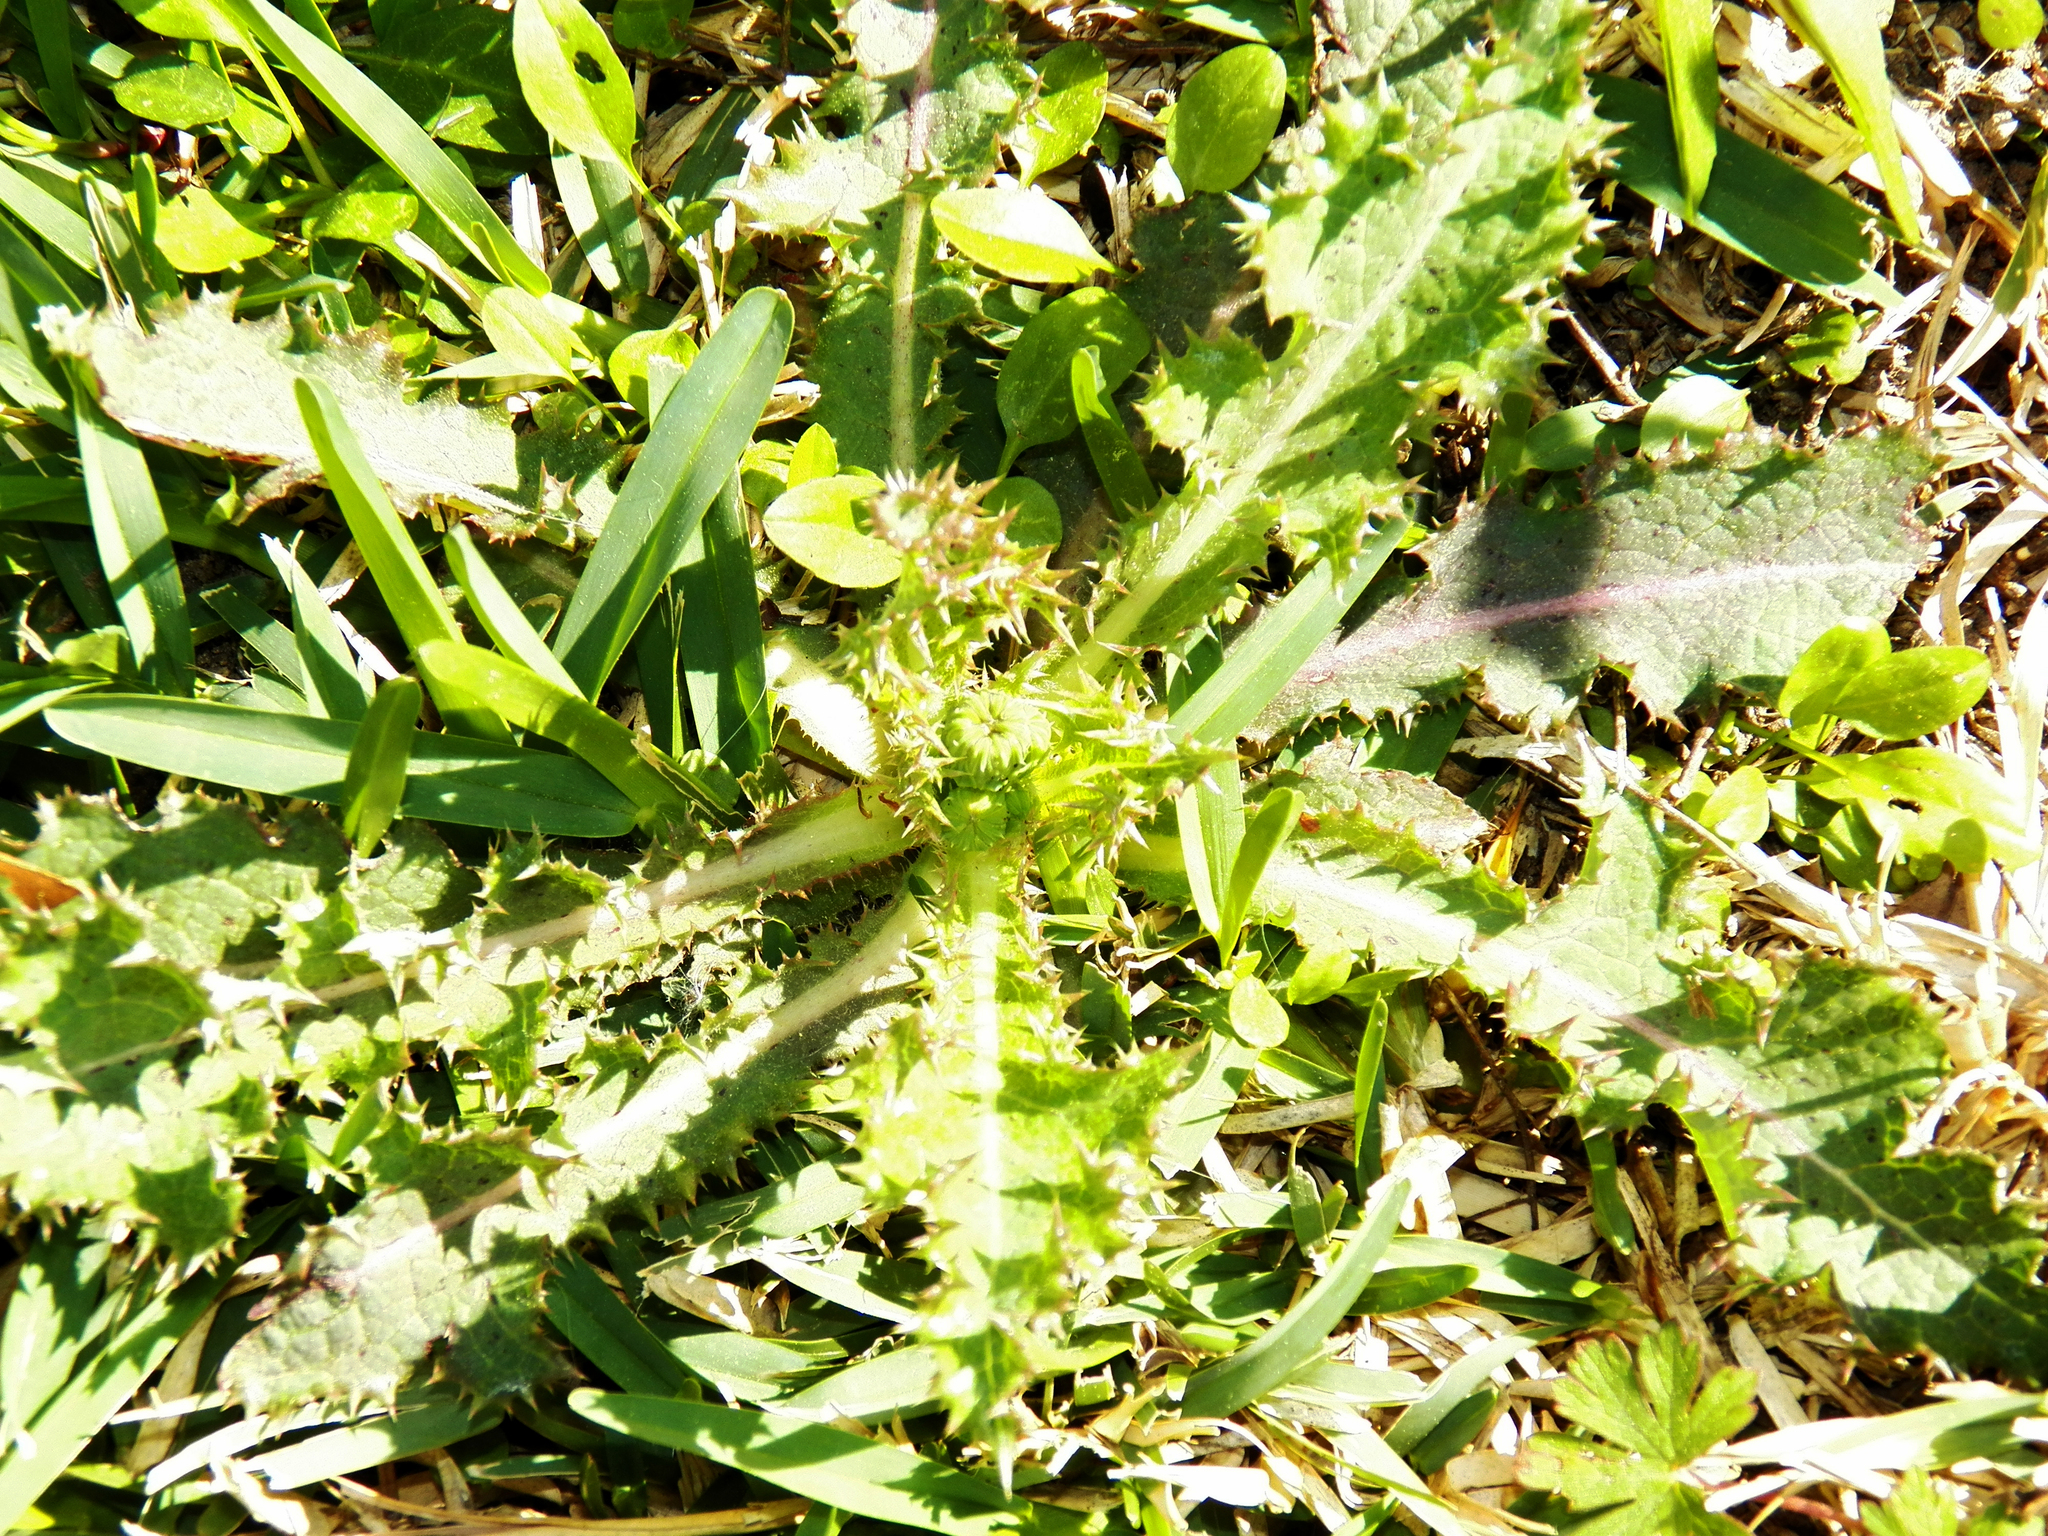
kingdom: Plantae
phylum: Tracheophyta
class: Magnoliopsida
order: Asterales
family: Asteraceae
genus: Sonchus
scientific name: Sonchus asper
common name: Prickly sow-thistle
